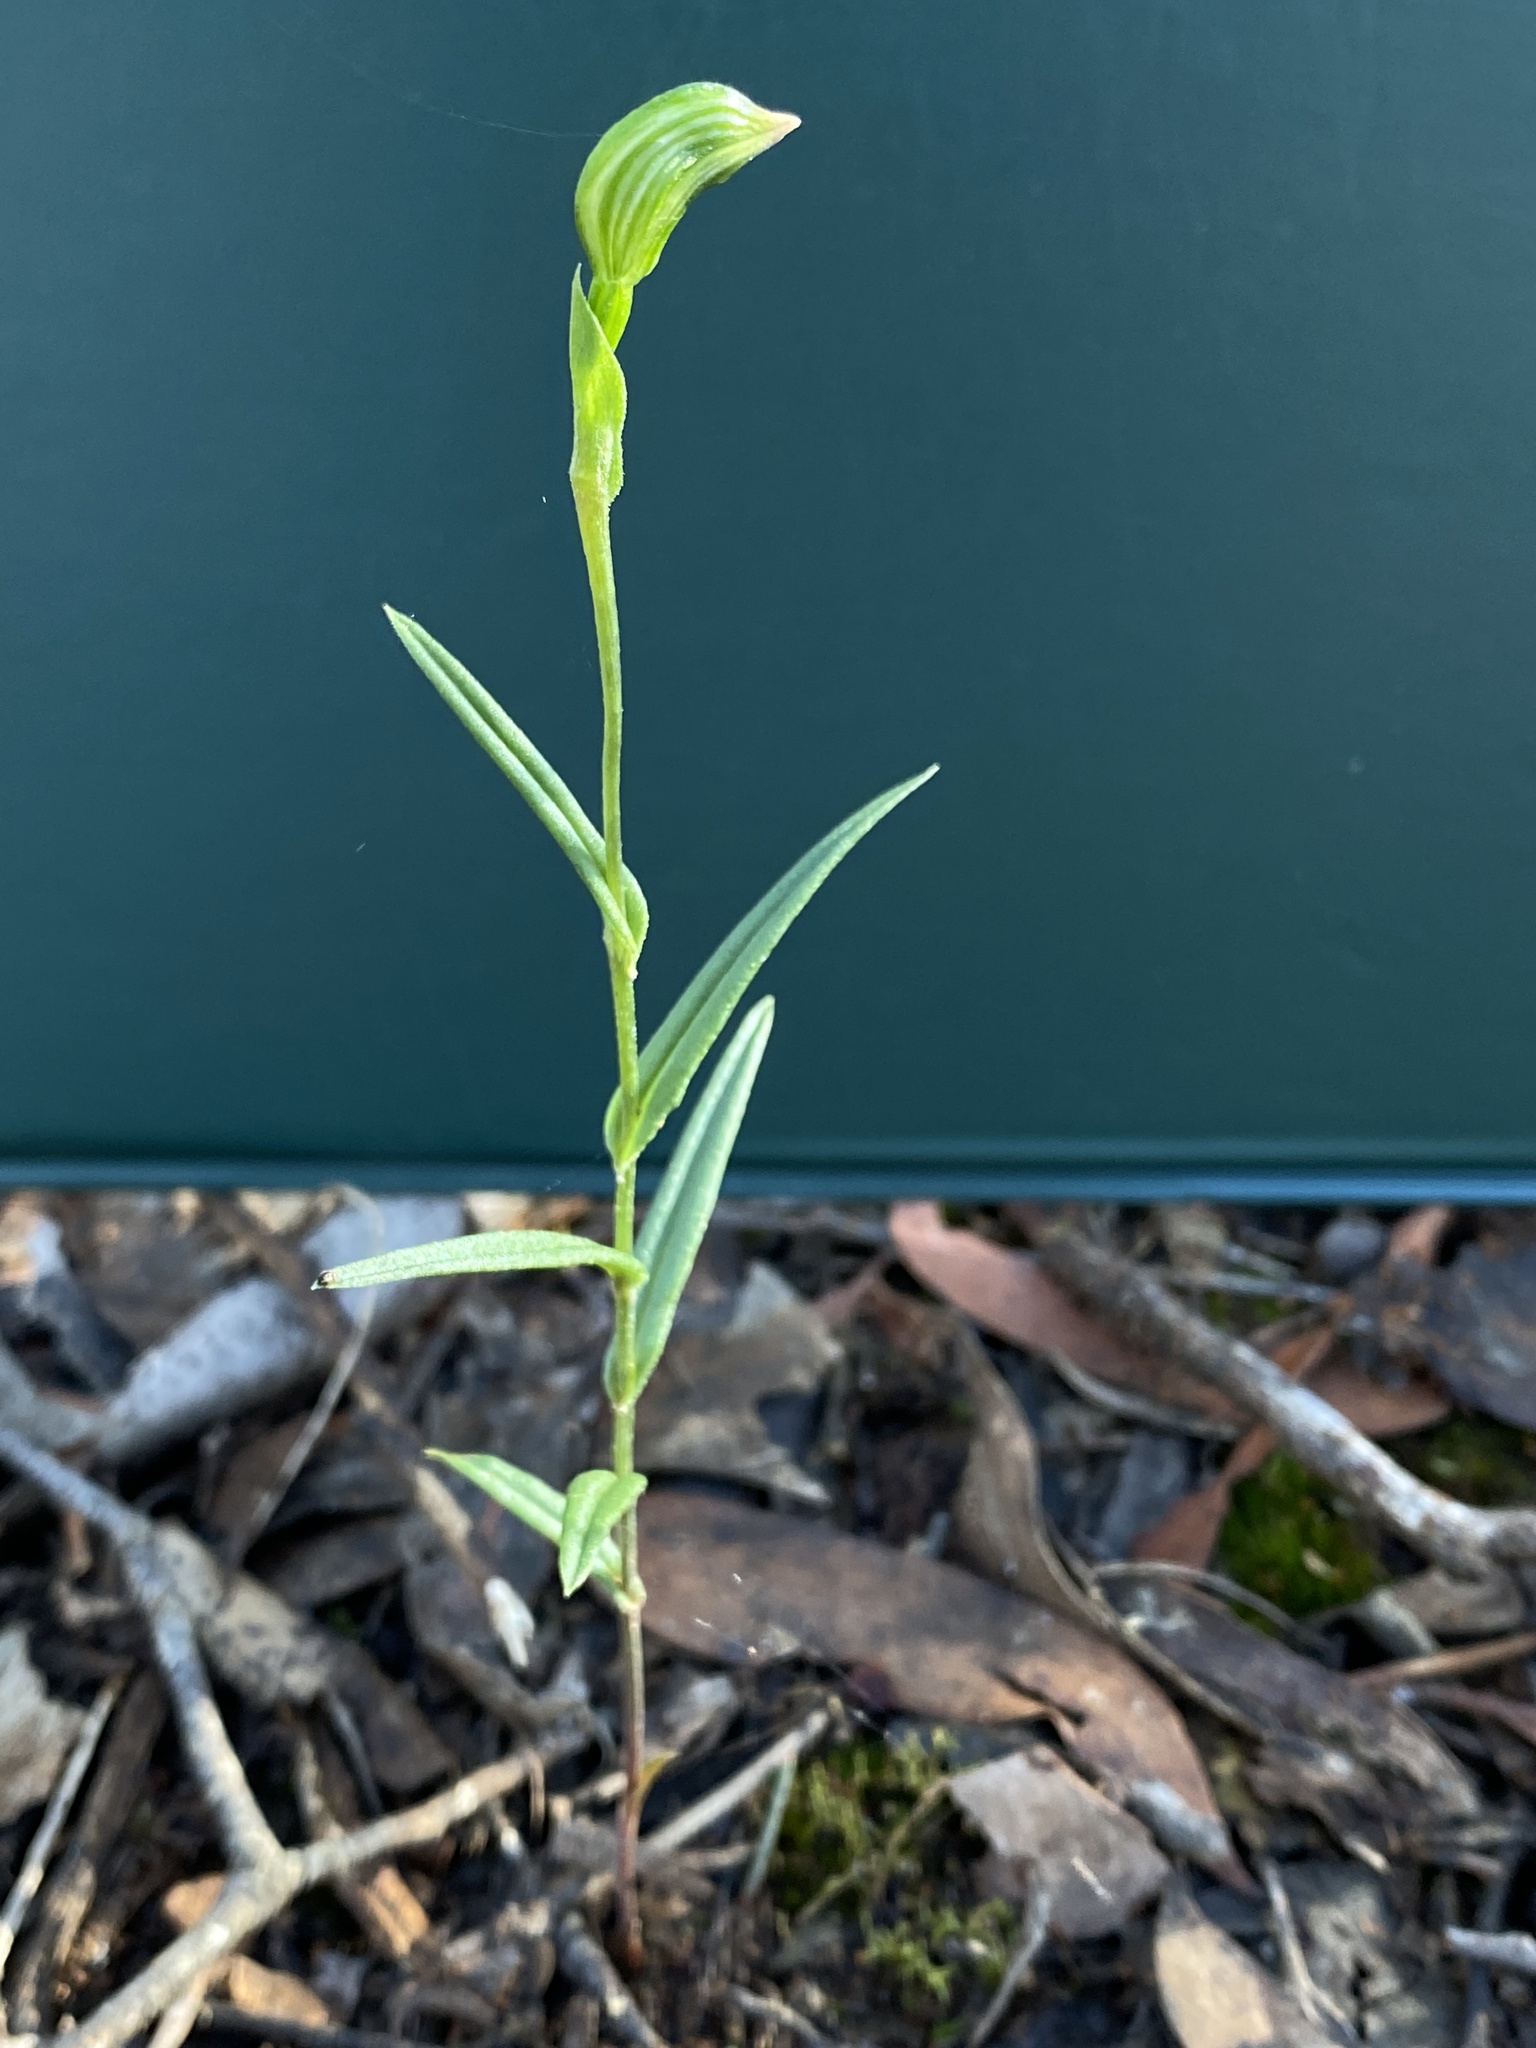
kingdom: Plantae
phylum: Tracheophyta
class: Liliopsida
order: Asparagales
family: Orchidaceae
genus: Pterostylis
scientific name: Pterostylis smaragdyna
